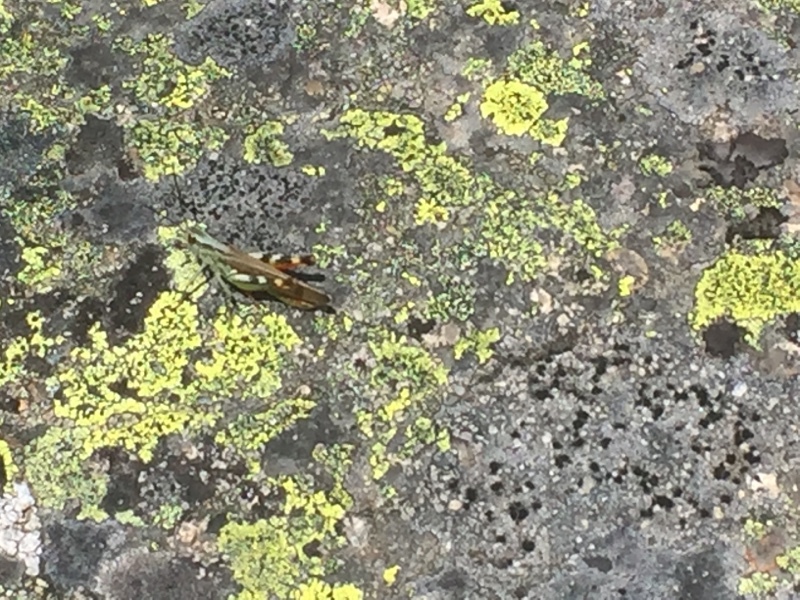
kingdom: Animalia
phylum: Arthropoda
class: Insecta
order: Orthoptera
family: Acrididae
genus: Chorthippus
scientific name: Chorthippus binotatus
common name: Two-marked grasshopper
